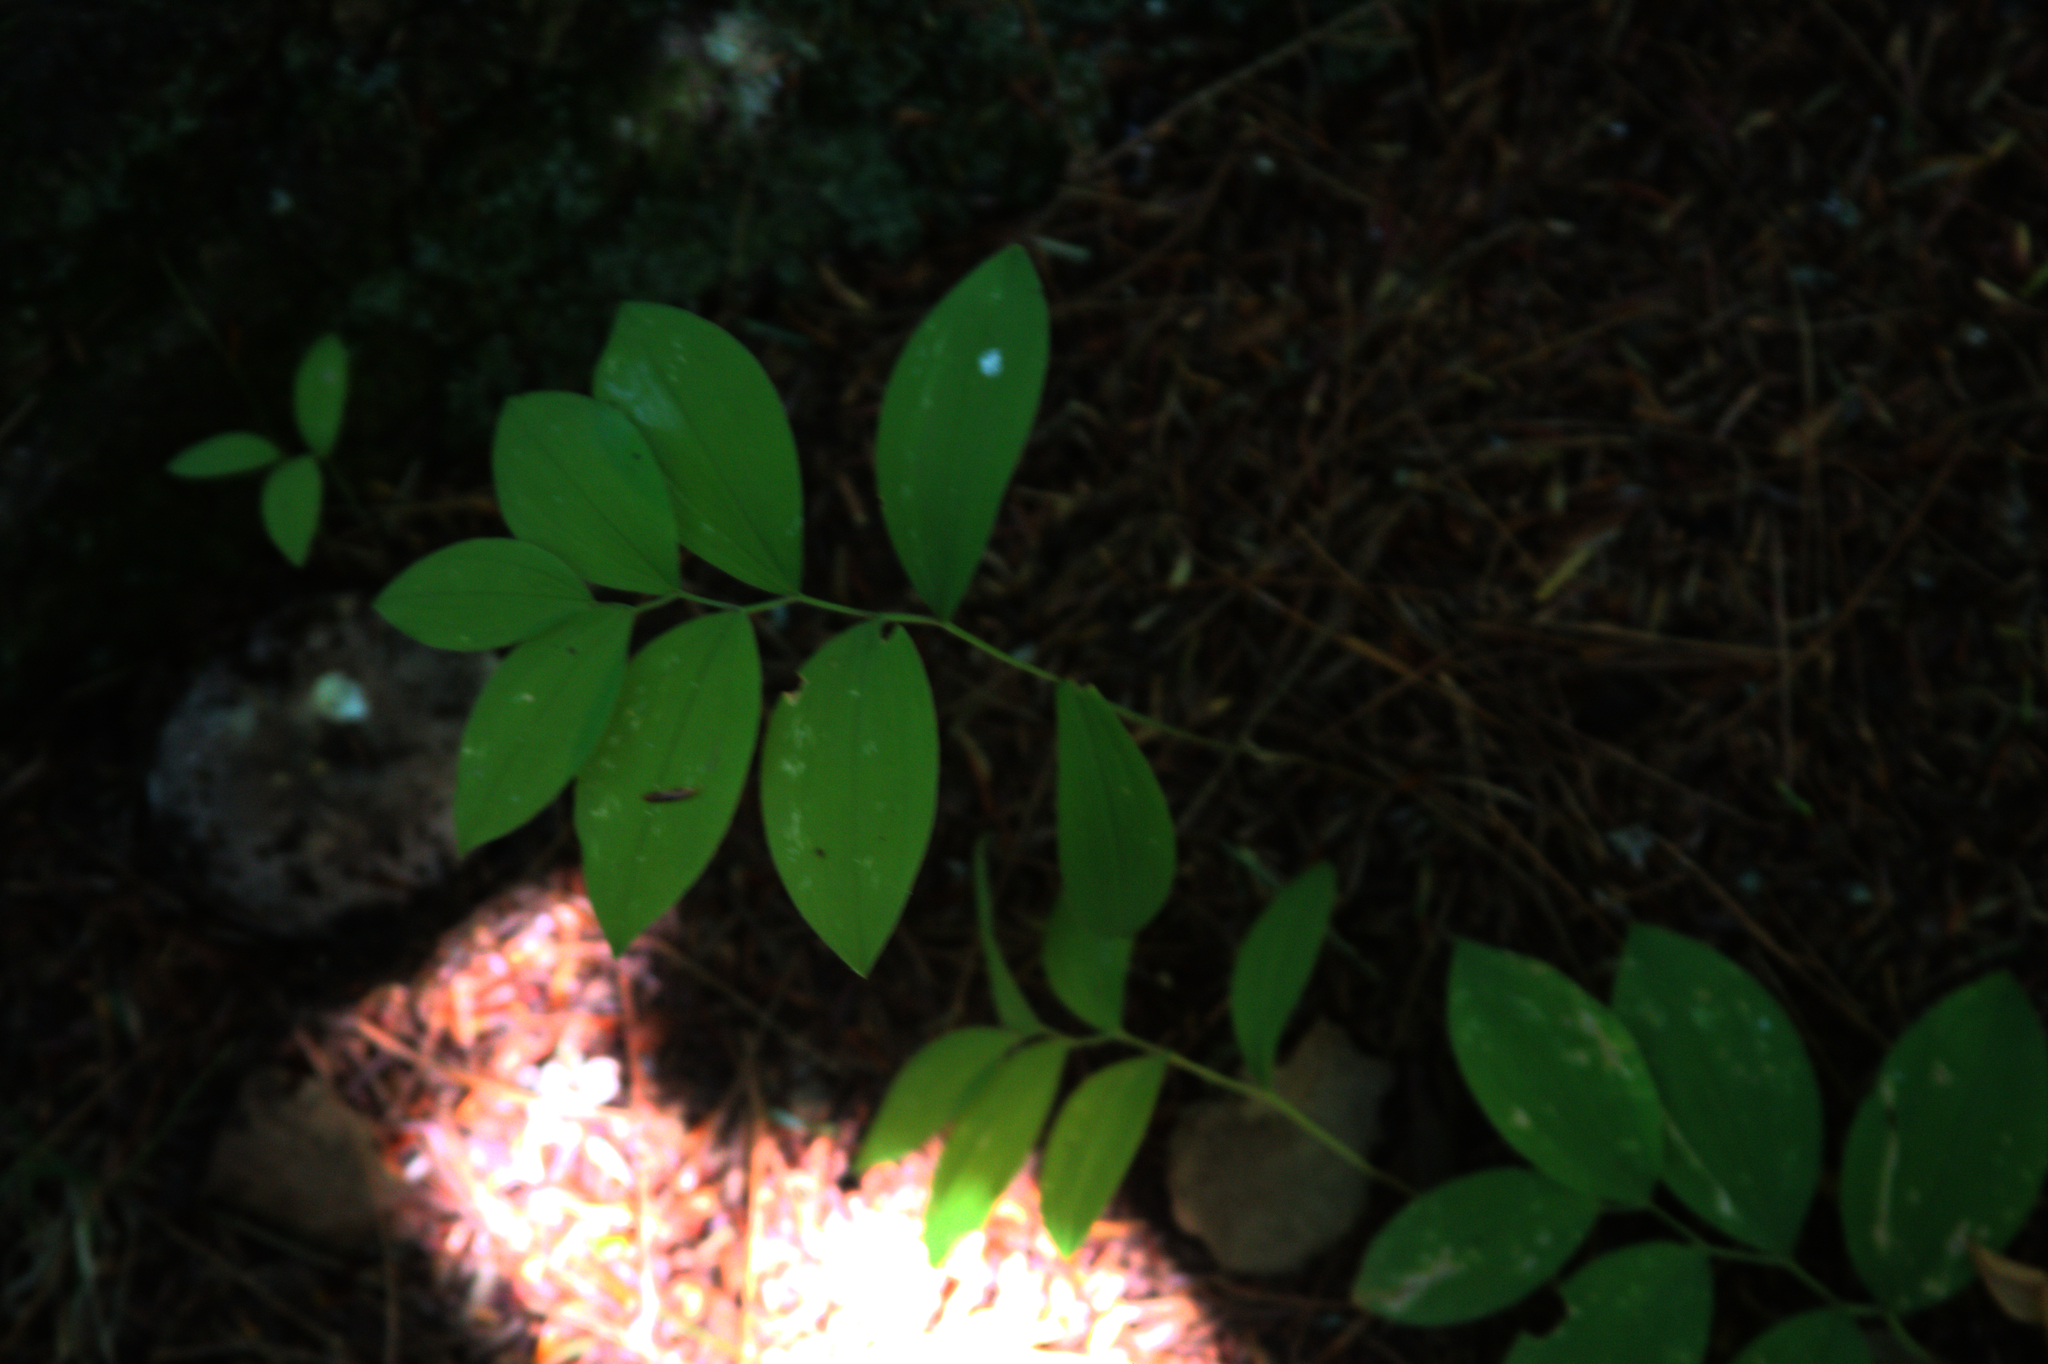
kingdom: Plantae
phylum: Tracheophyta
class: Liliopsida
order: Liliales
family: Colchicaceae
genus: Uvularia
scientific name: Uvularia sessilifolia
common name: Straw-lily
